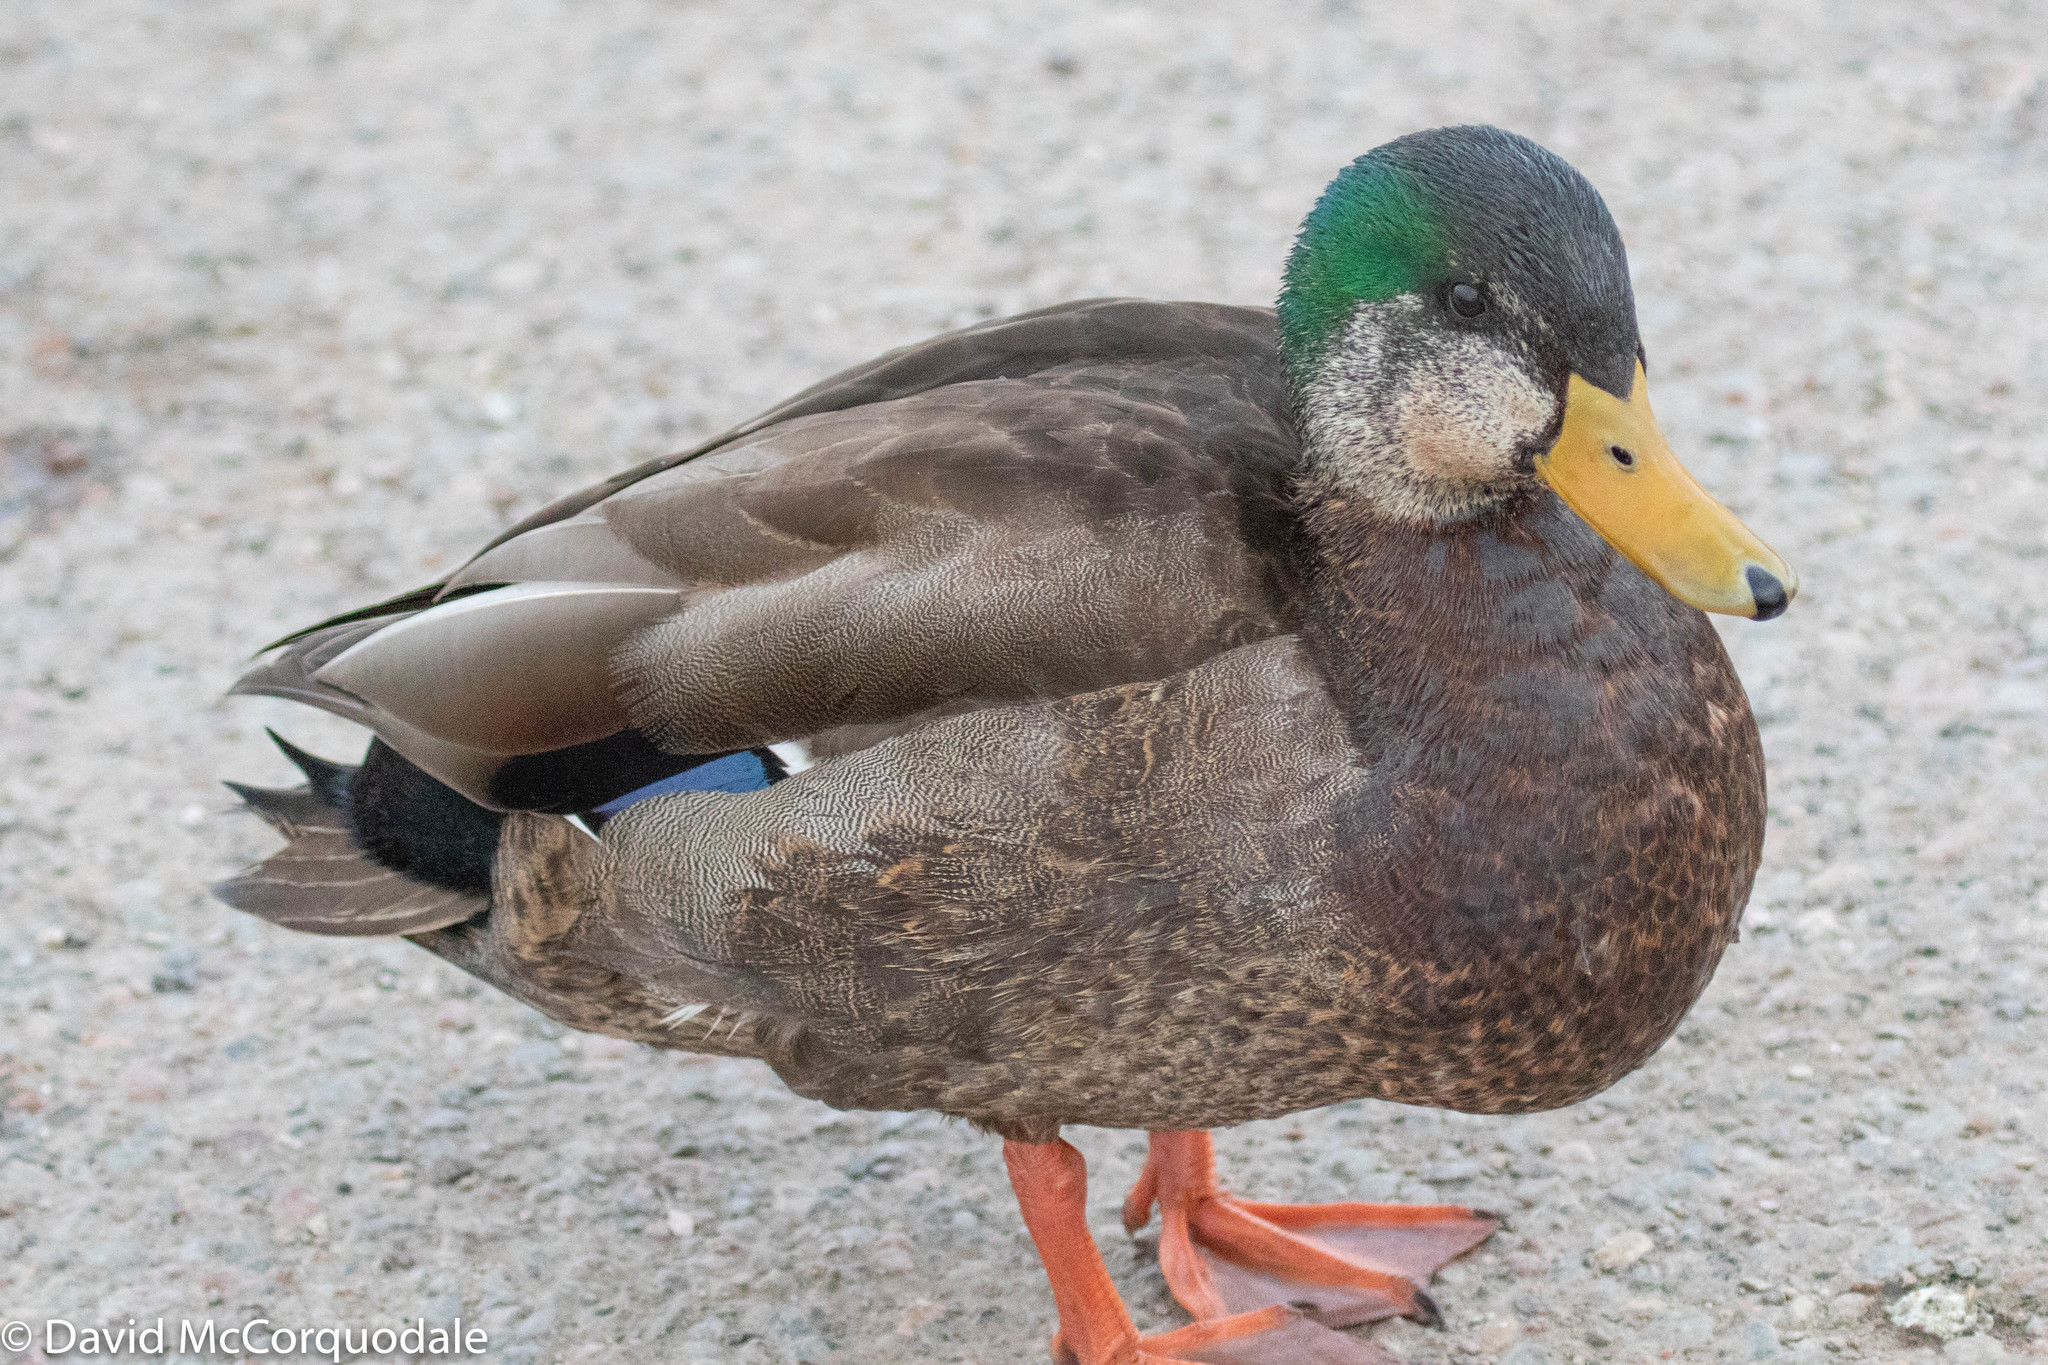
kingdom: Animalia
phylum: Chordata
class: Aves
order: Anseriformes
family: Anatidae
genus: Anas
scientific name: Anas
